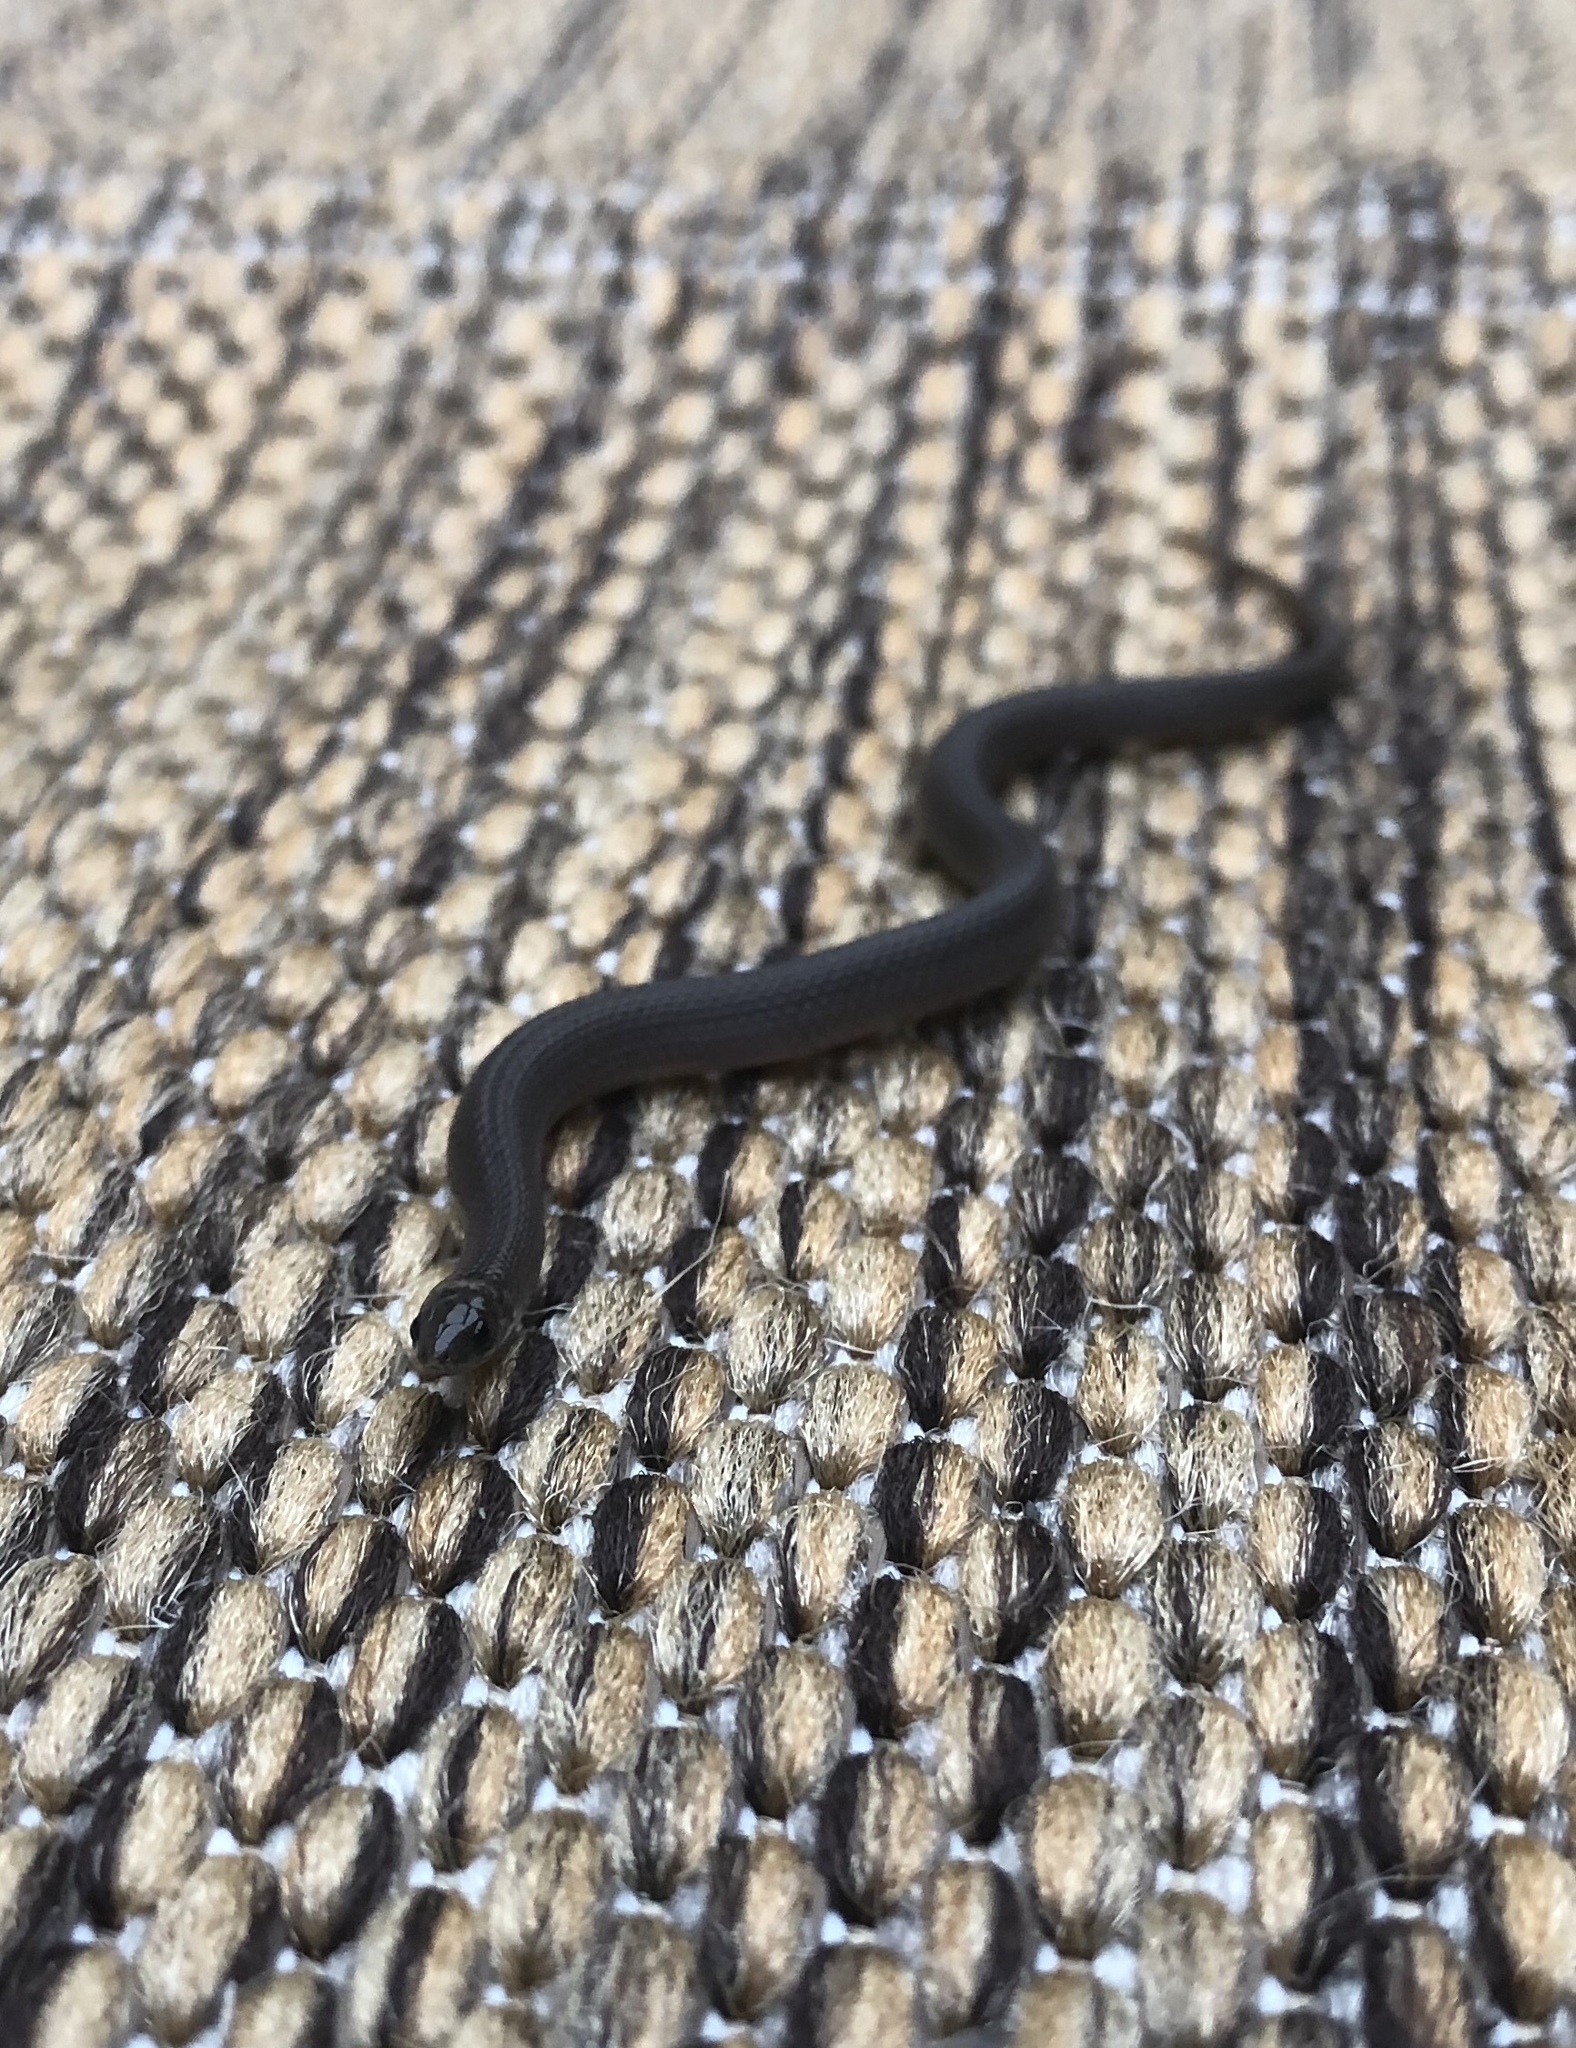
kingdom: Animalia
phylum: Chordata
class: Squamata
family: Colubridae
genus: Haldea
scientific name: Haldea striatula
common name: Rough earth snake
